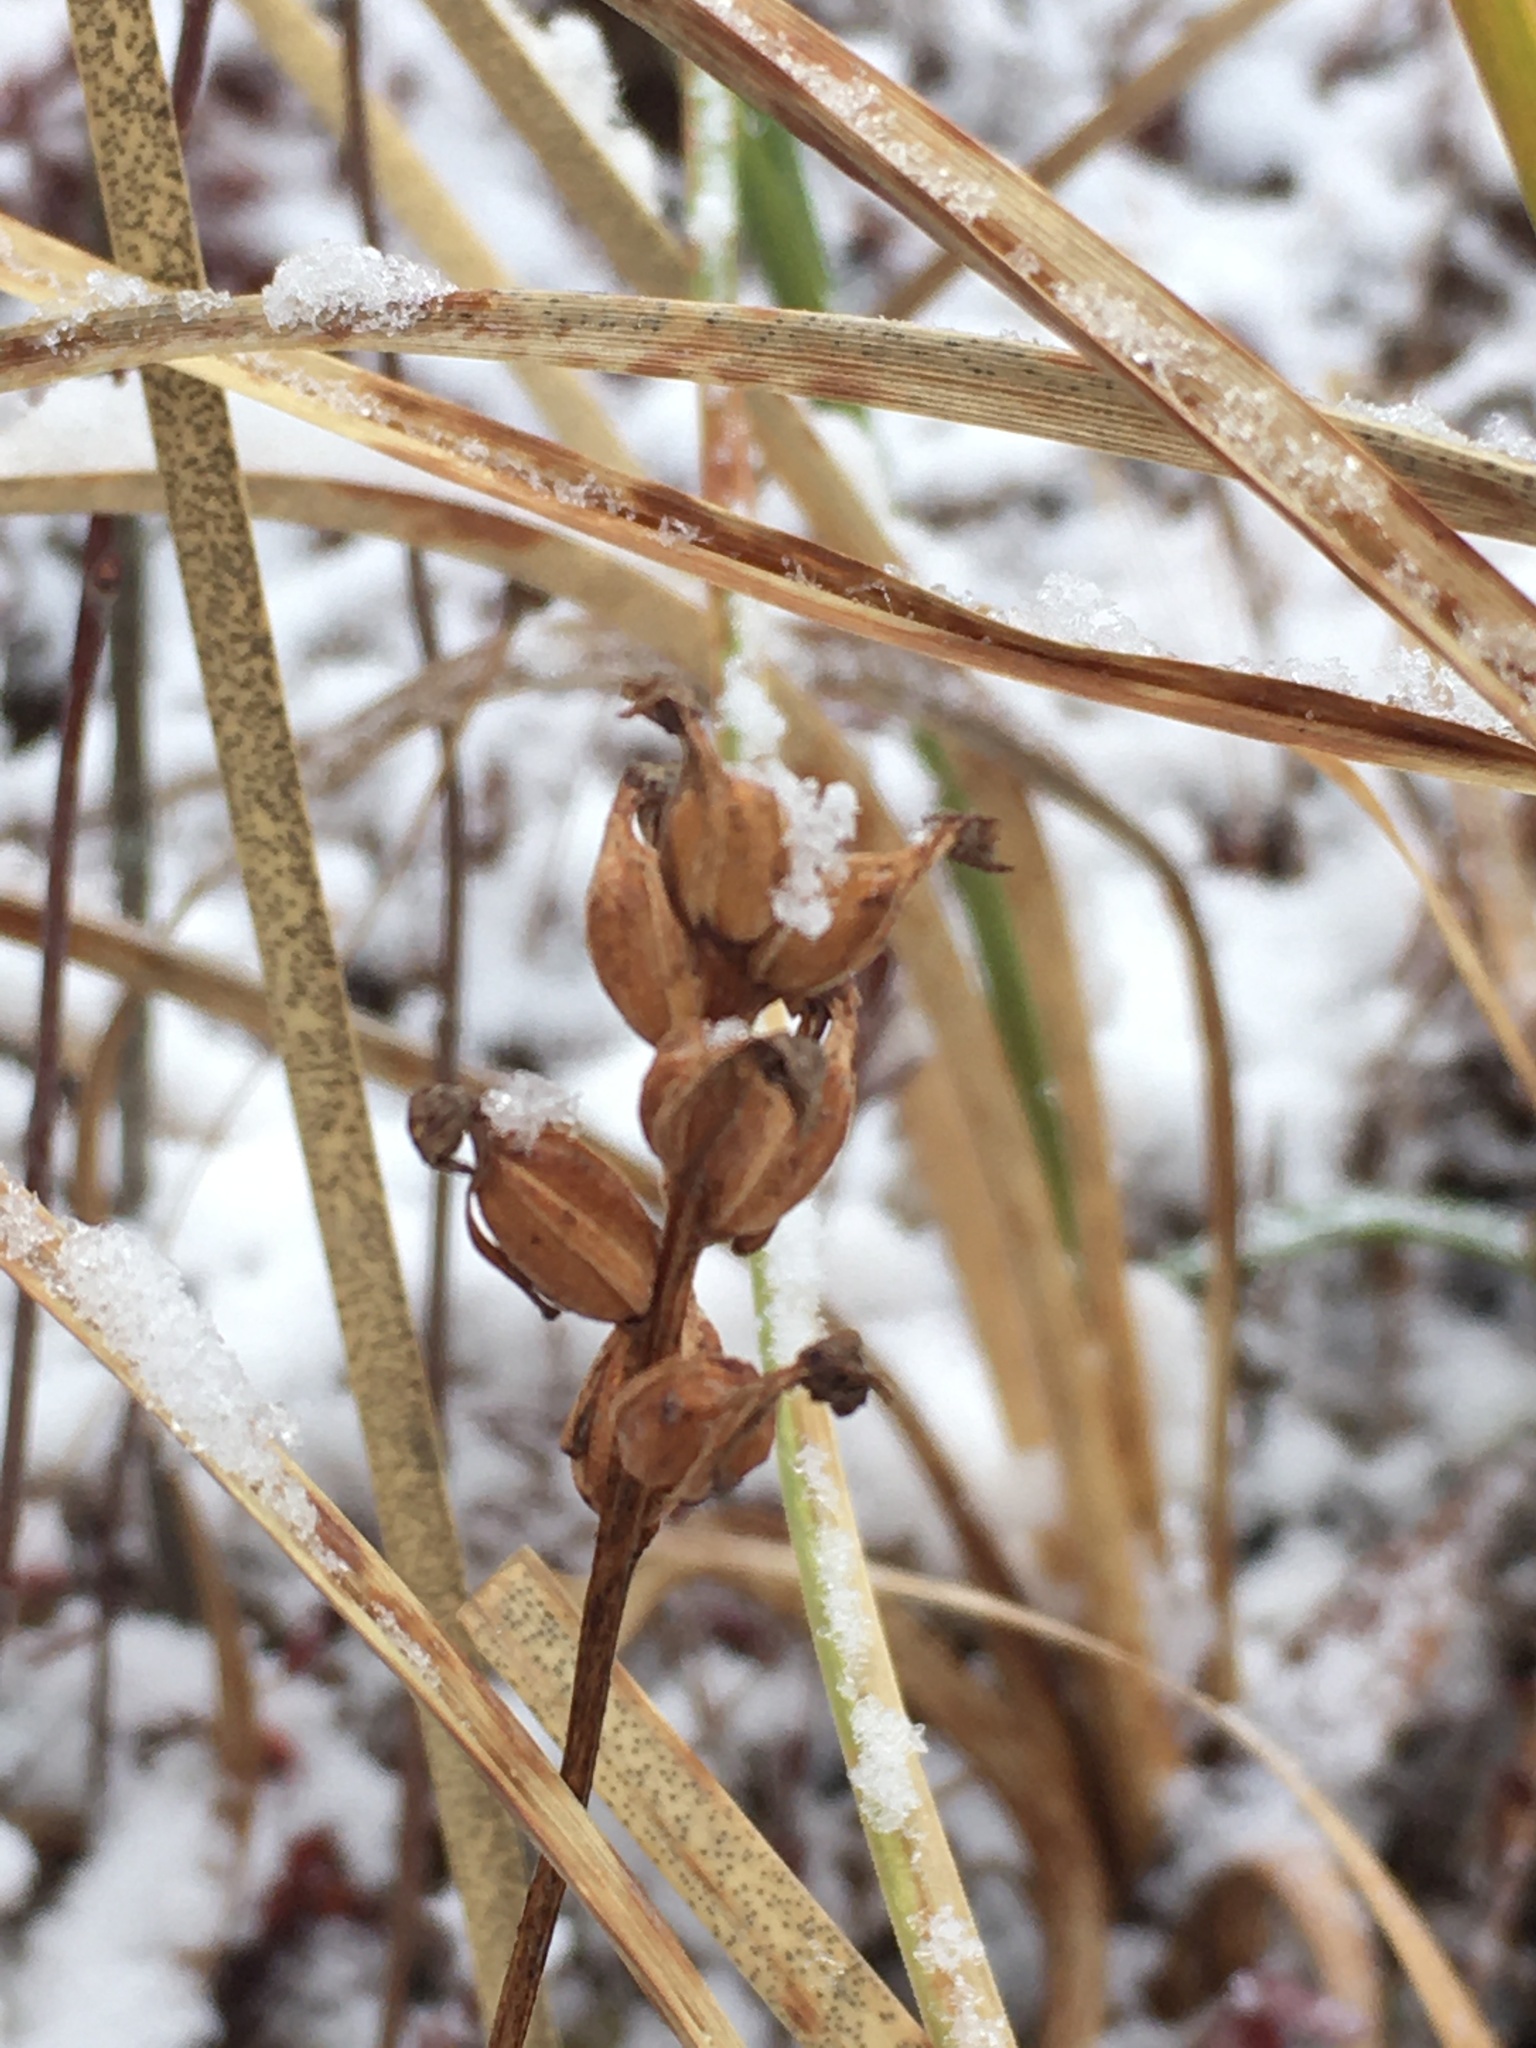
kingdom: Plantae
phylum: Tracheophyta
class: Liliopsida
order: Asparagales
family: Orchidaceae
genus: Platanthera
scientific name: Platanthera clavellata
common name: Club-spur orchid
